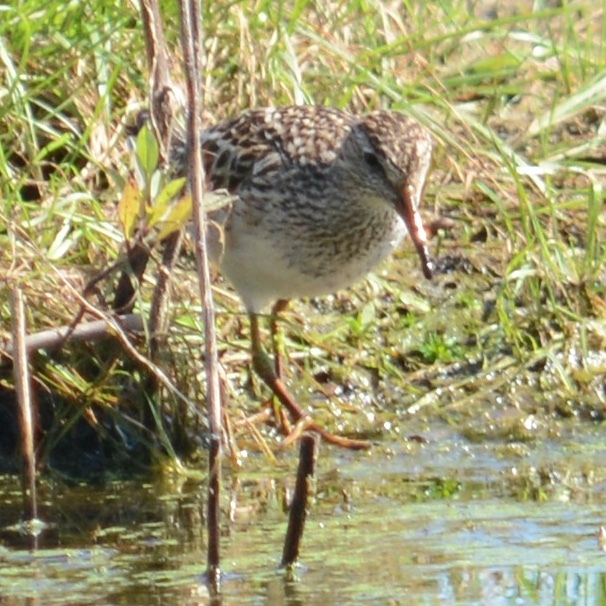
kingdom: Animalia
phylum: Chordata
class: Aves
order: Charadriiformes
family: Scolopacidae
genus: Calidris
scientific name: Calidris melanotos
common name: Pectoral sandpiper
